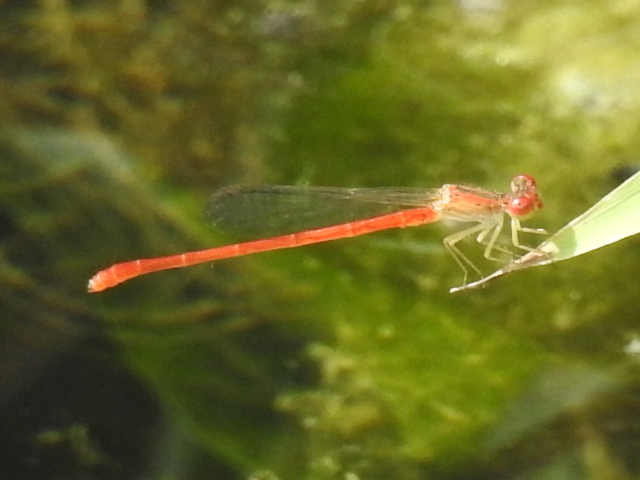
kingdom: Animalia
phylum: Arthropoda
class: Insecta
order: Odonata
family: Coenagrionidae
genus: Telebasis
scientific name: Telebasis salva
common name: Desert firetail
